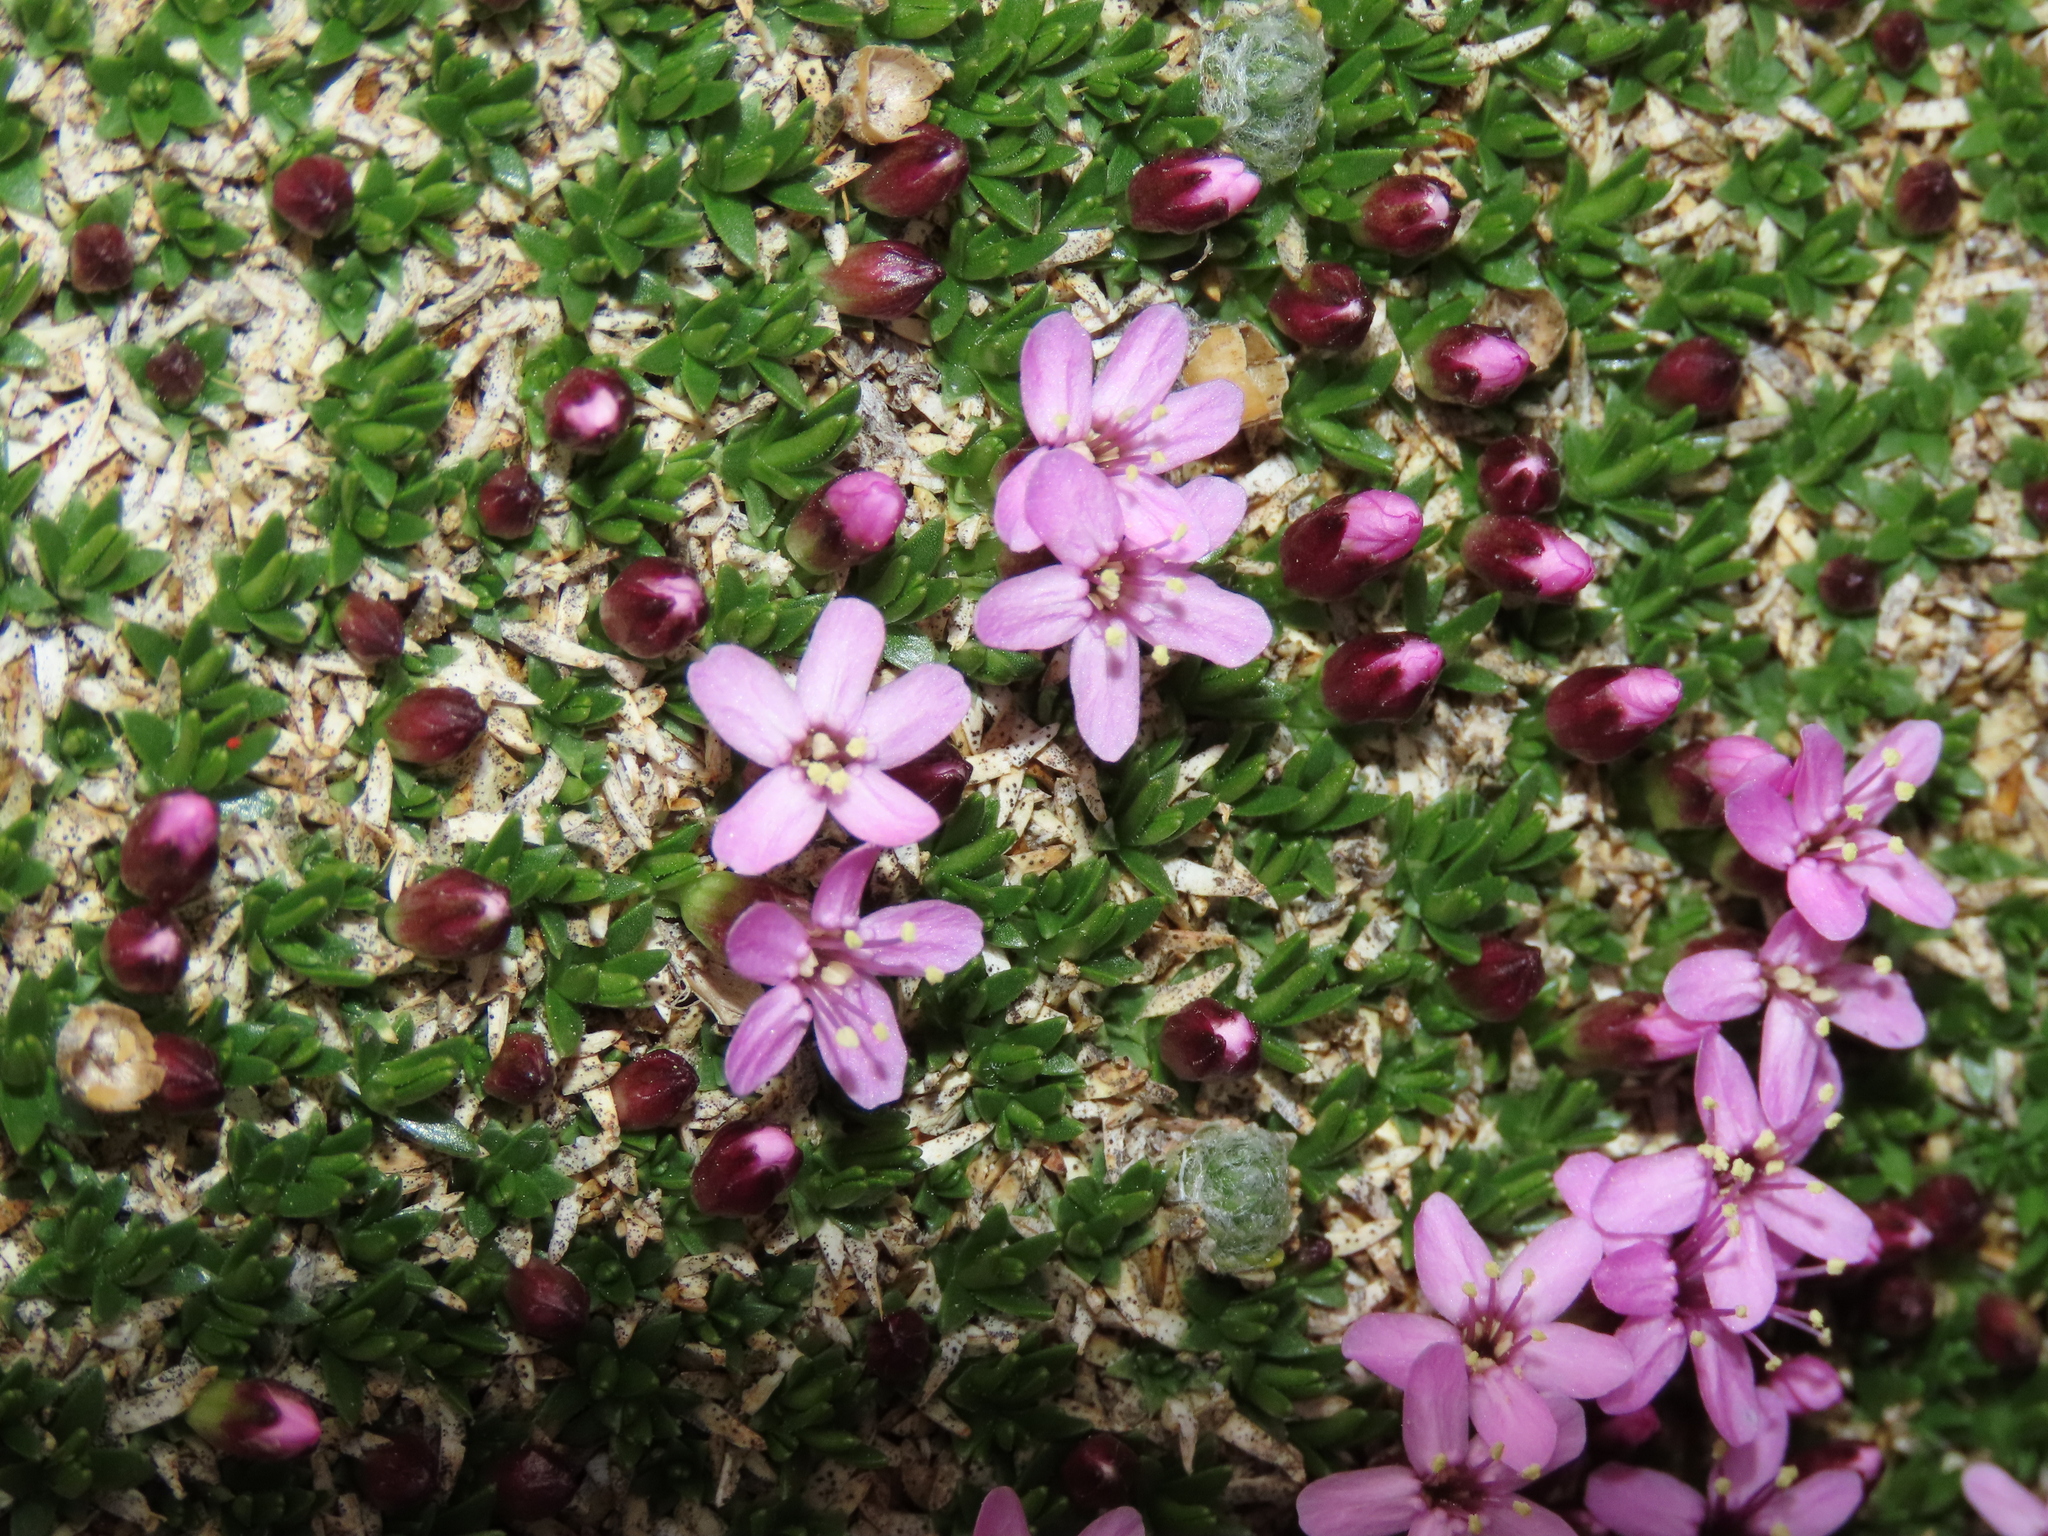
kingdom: Plantae
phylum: Tracheophyta
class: Magnoliopsida
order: Caryophyllales
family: Caryophyllaceae
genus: Silene
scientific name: Silene acaulis
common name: Moss campion
